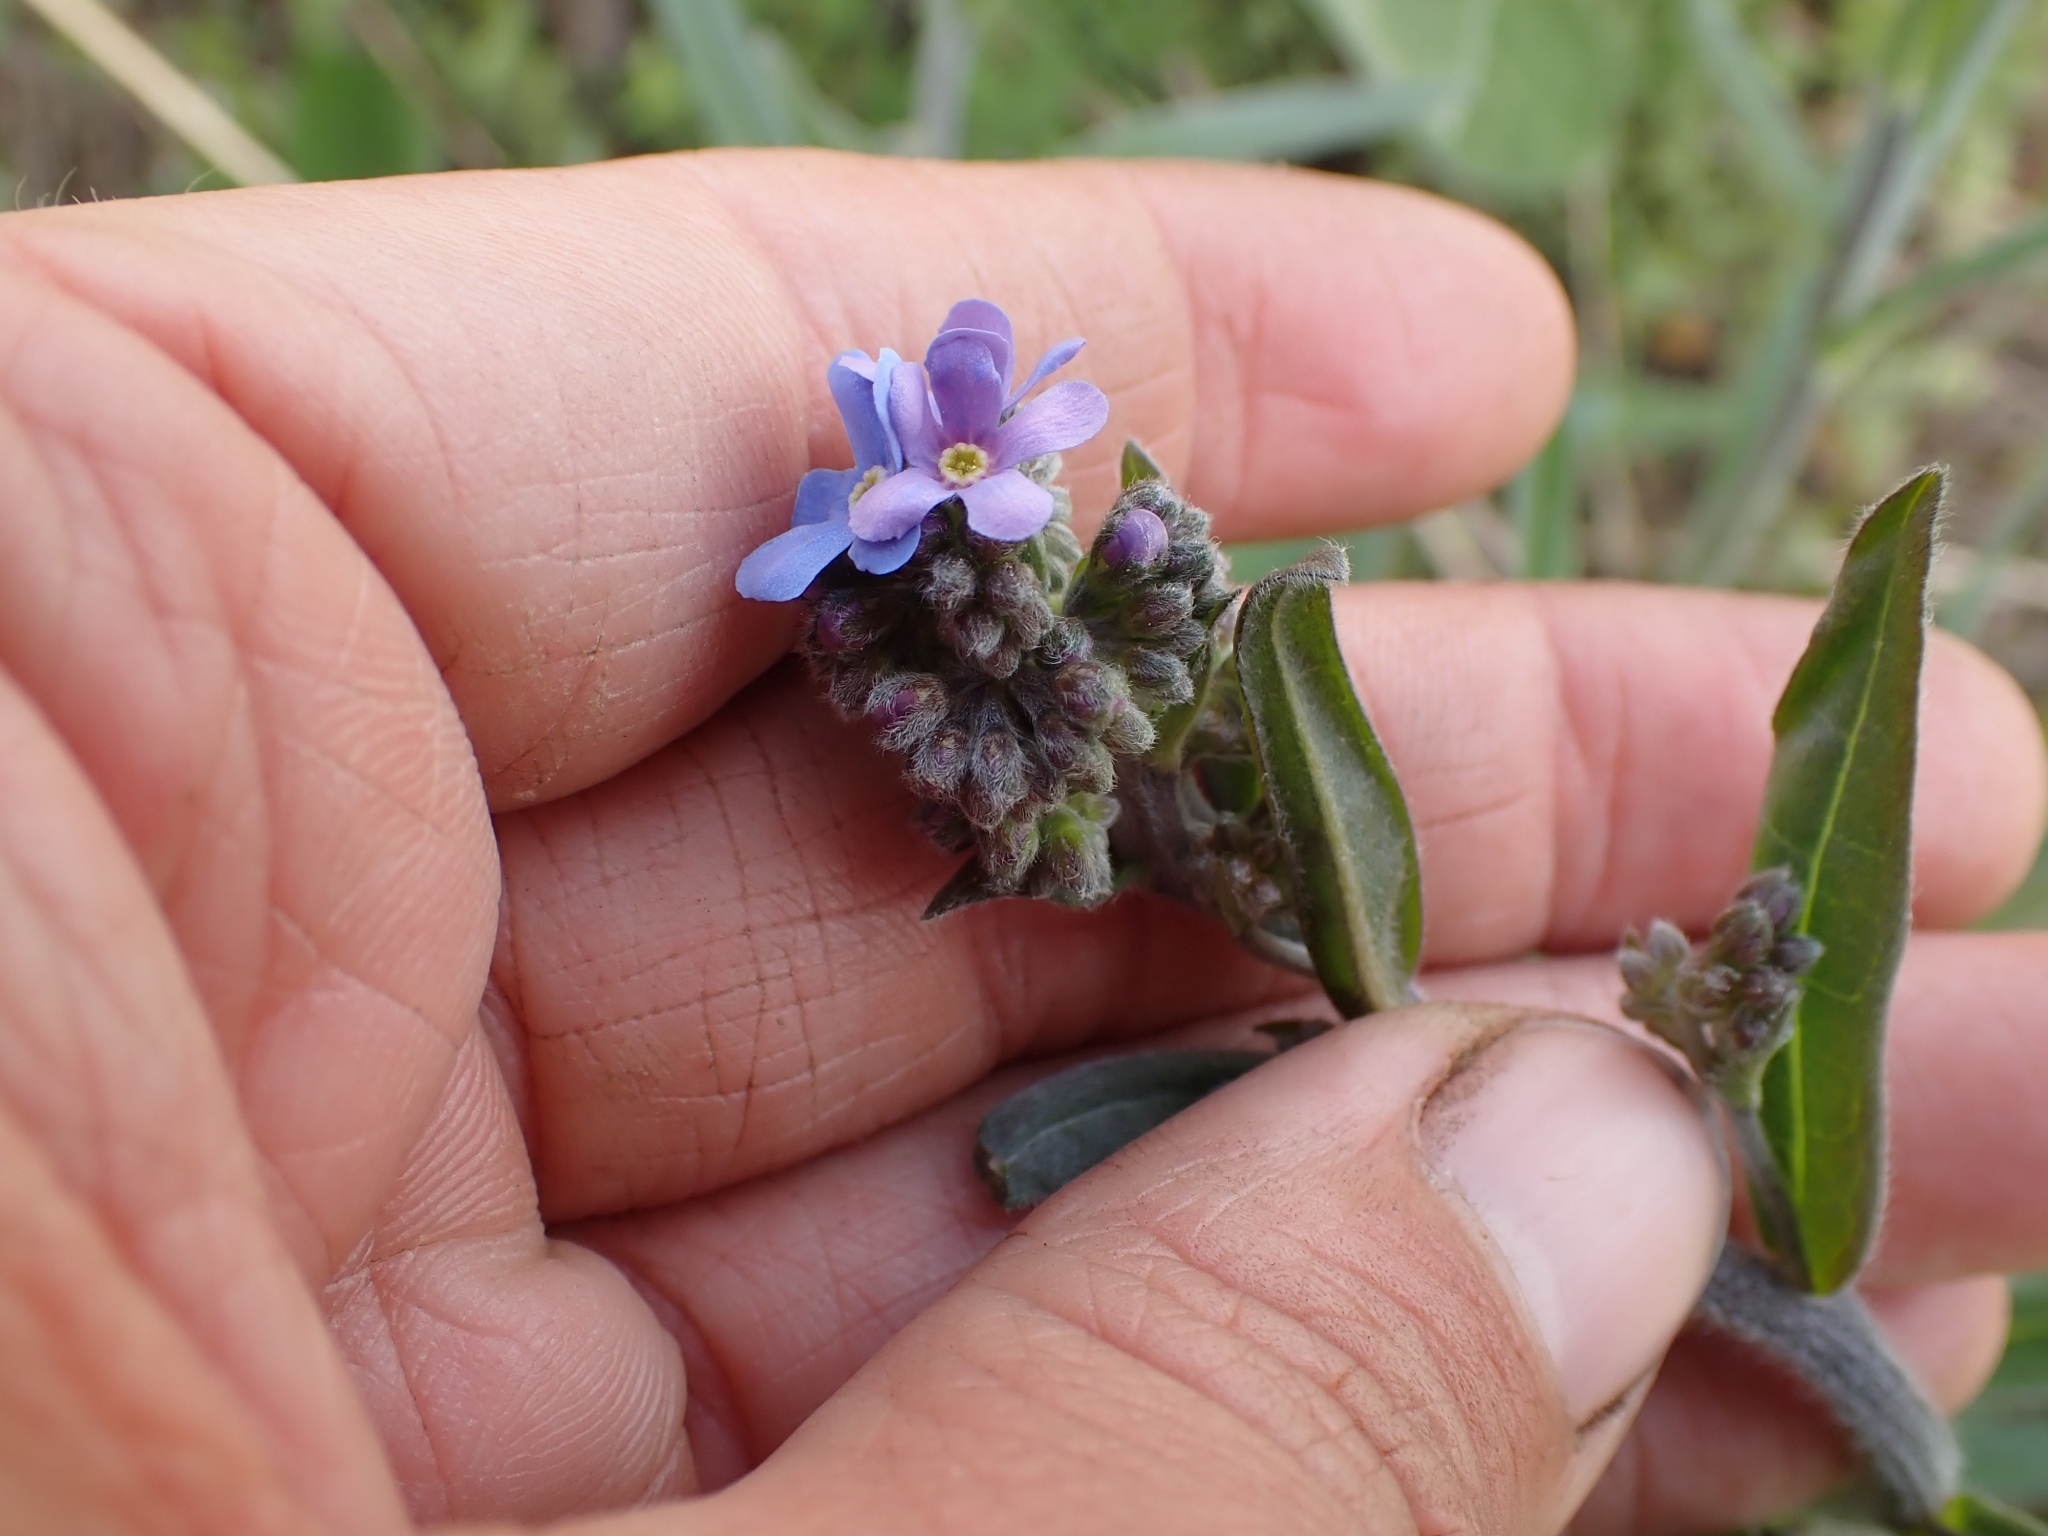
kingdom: Plantae
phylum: Tracheophyta
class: Magnoliopsida
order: Boraginales
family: Boraginaceae
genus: Hackelia
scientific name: Hackelia micrantha
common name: Meadow stickseed
